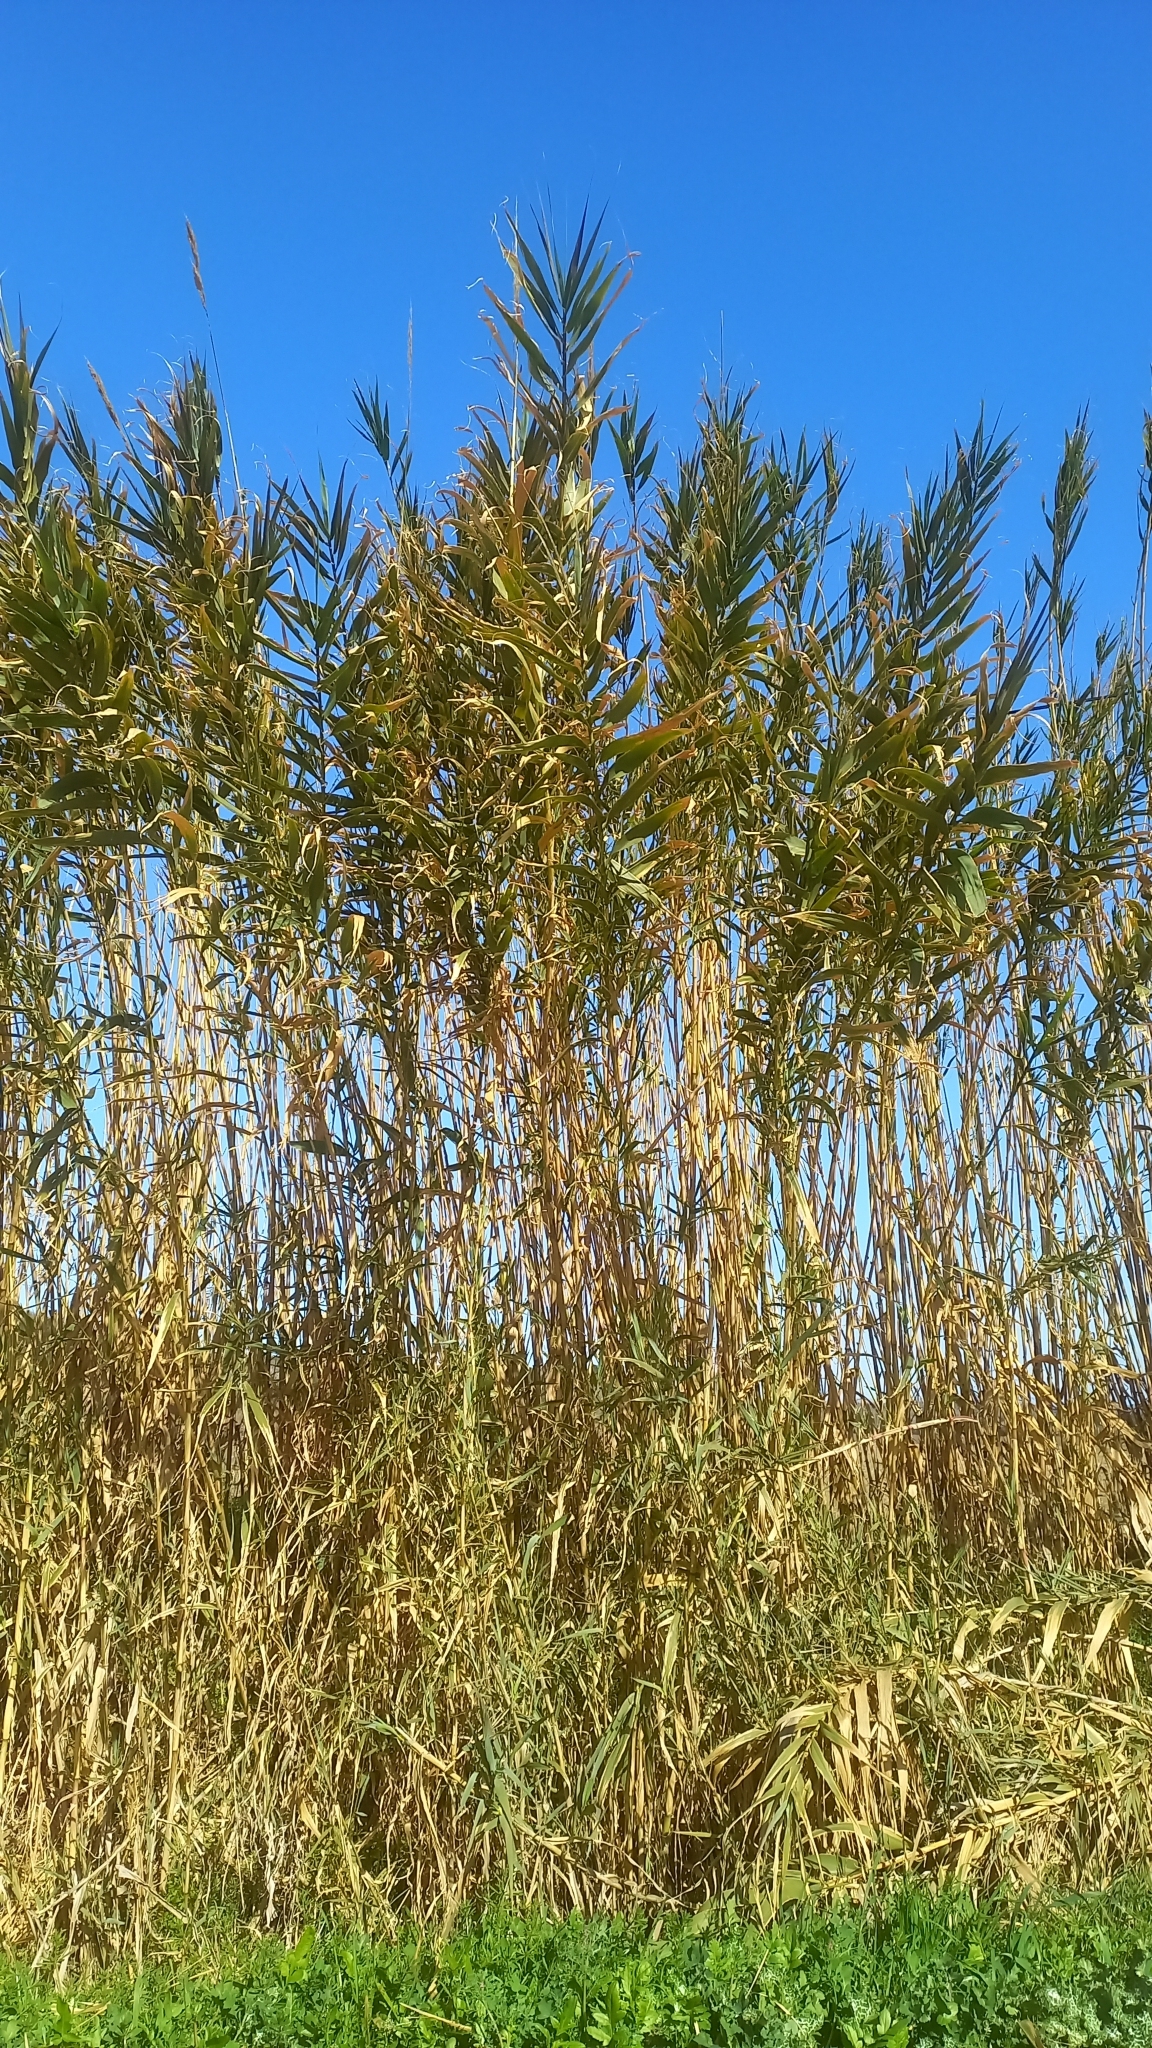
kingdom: Plantae
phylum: Tracheophyta
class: Liliopsida
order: Poales
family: Poaceae
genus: Arundo
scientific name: Arundo donax
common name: Giant reed
